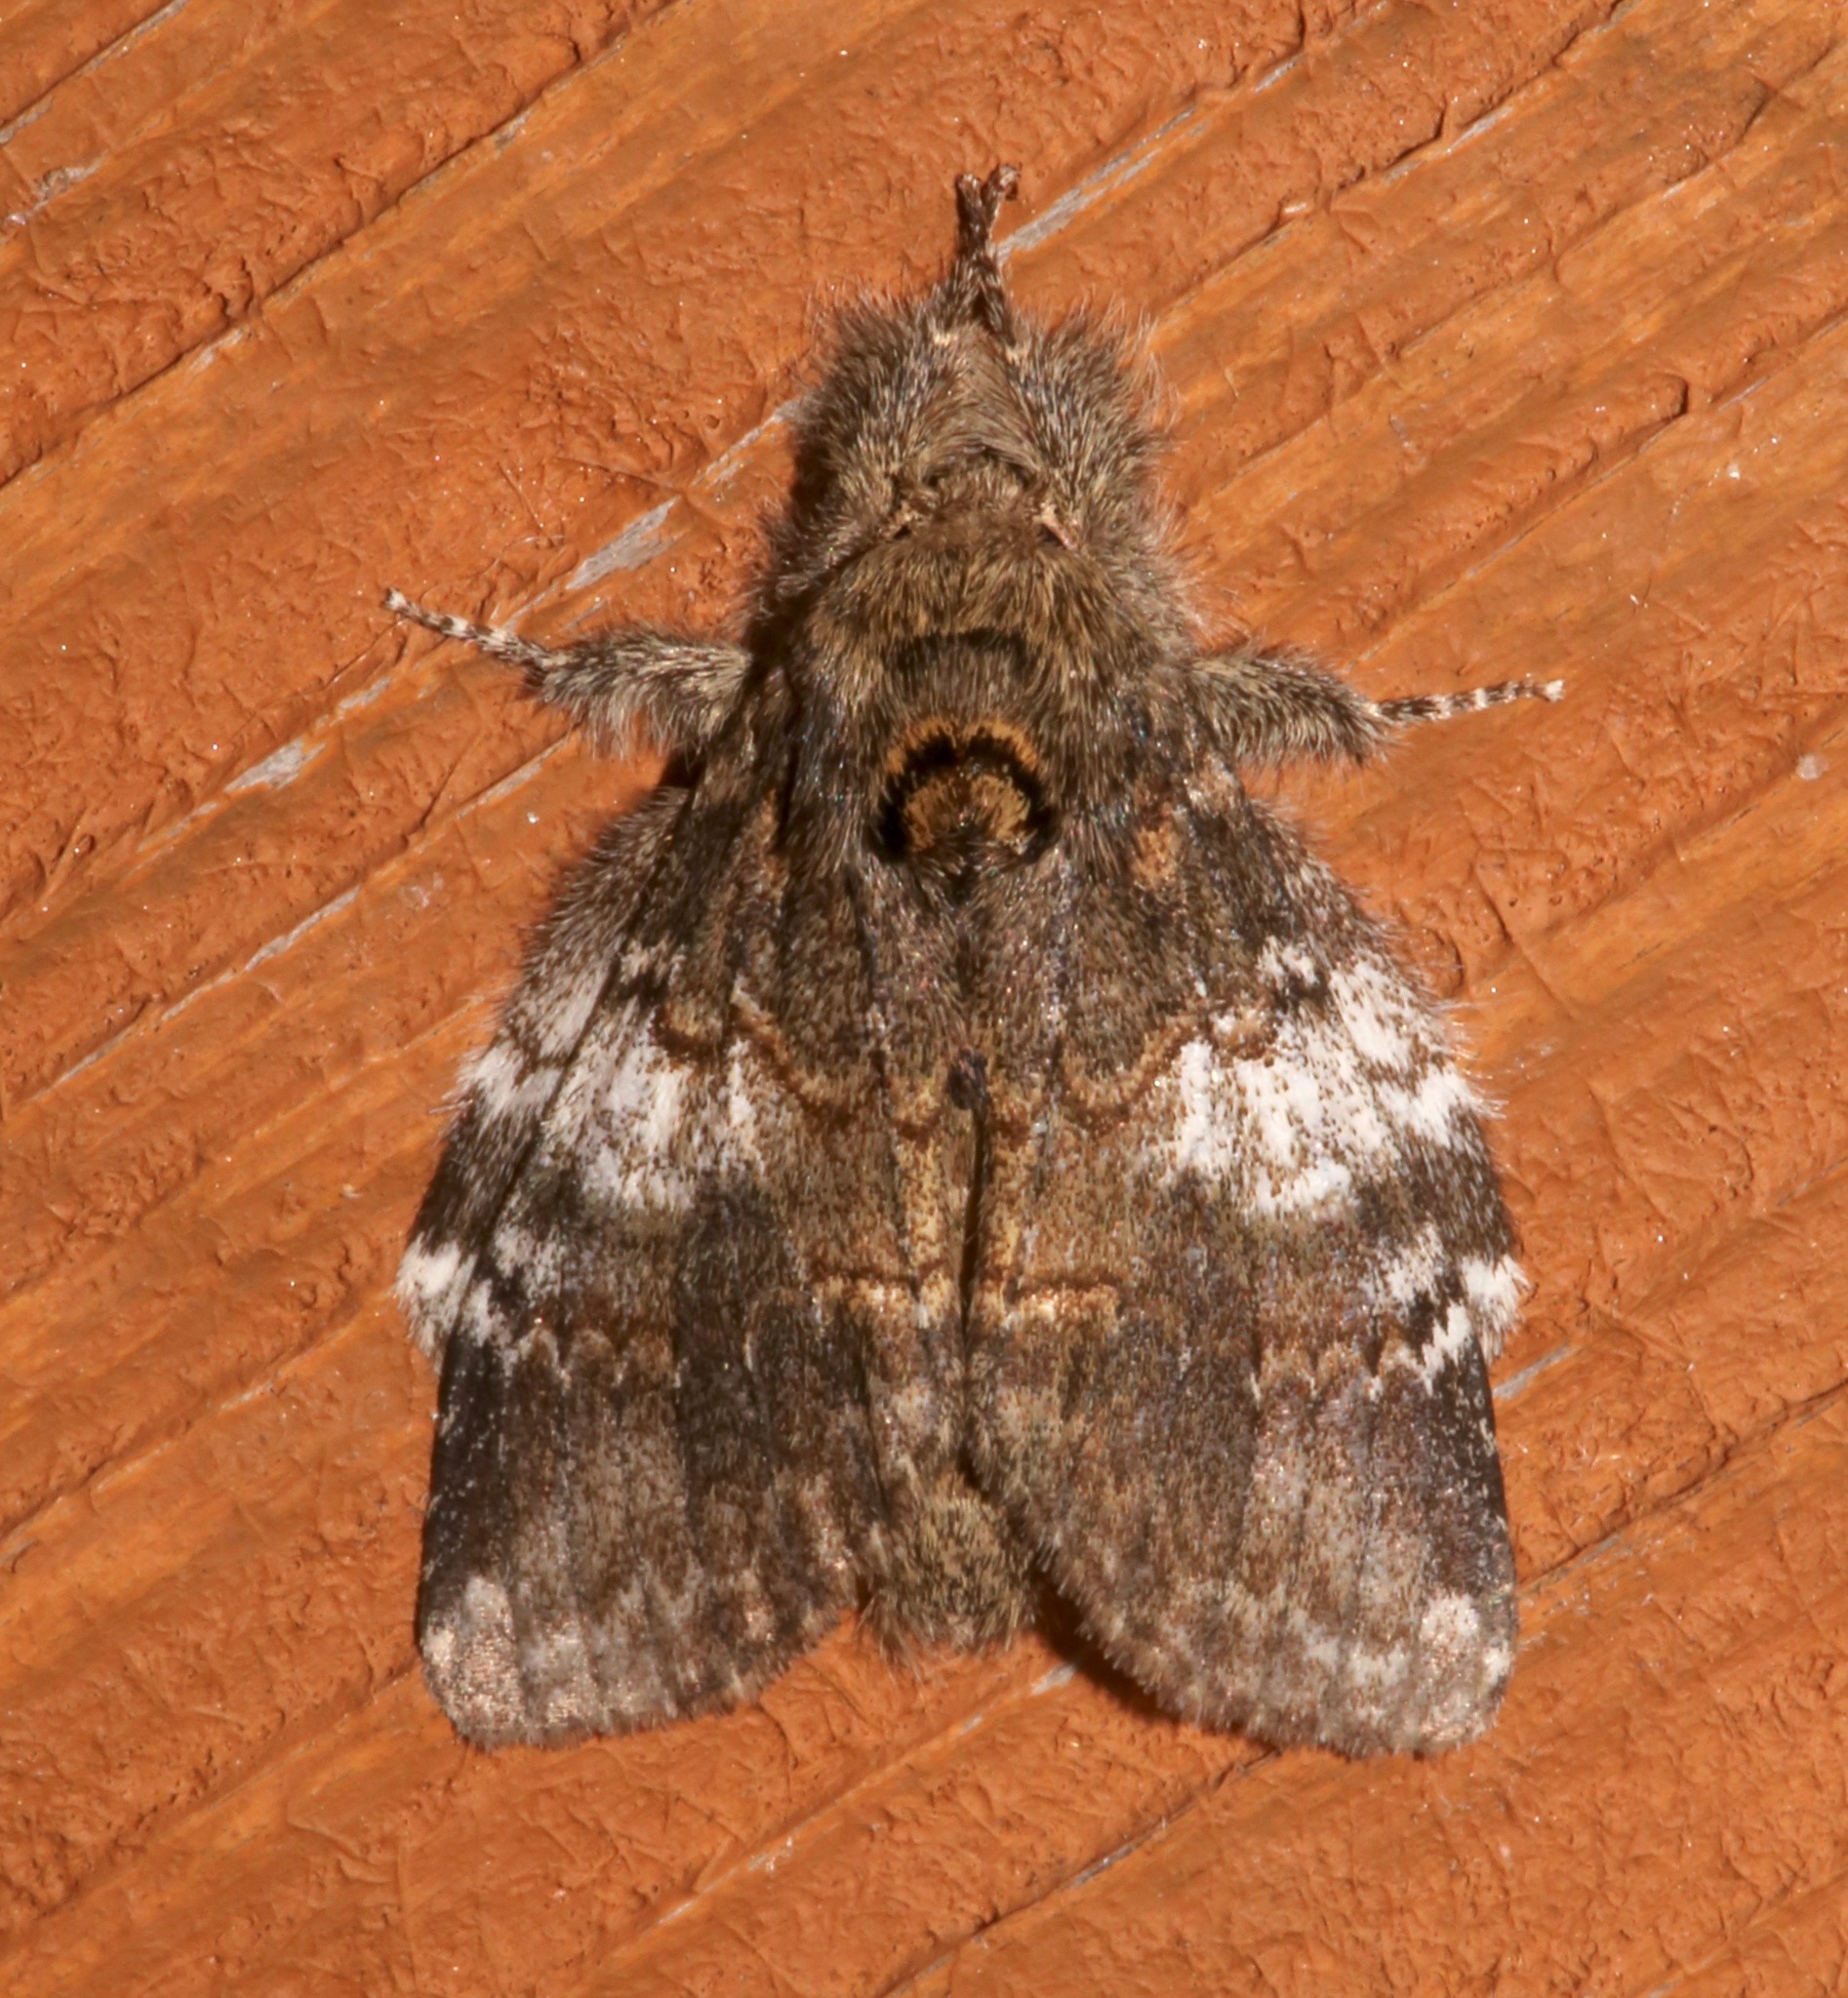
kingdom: Animalia
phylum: Arthropoda
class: Insecta
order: Lepidoptera
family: Notodontidae
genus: Peridea
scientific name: Peridea angulosa
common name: Angulose prominent
